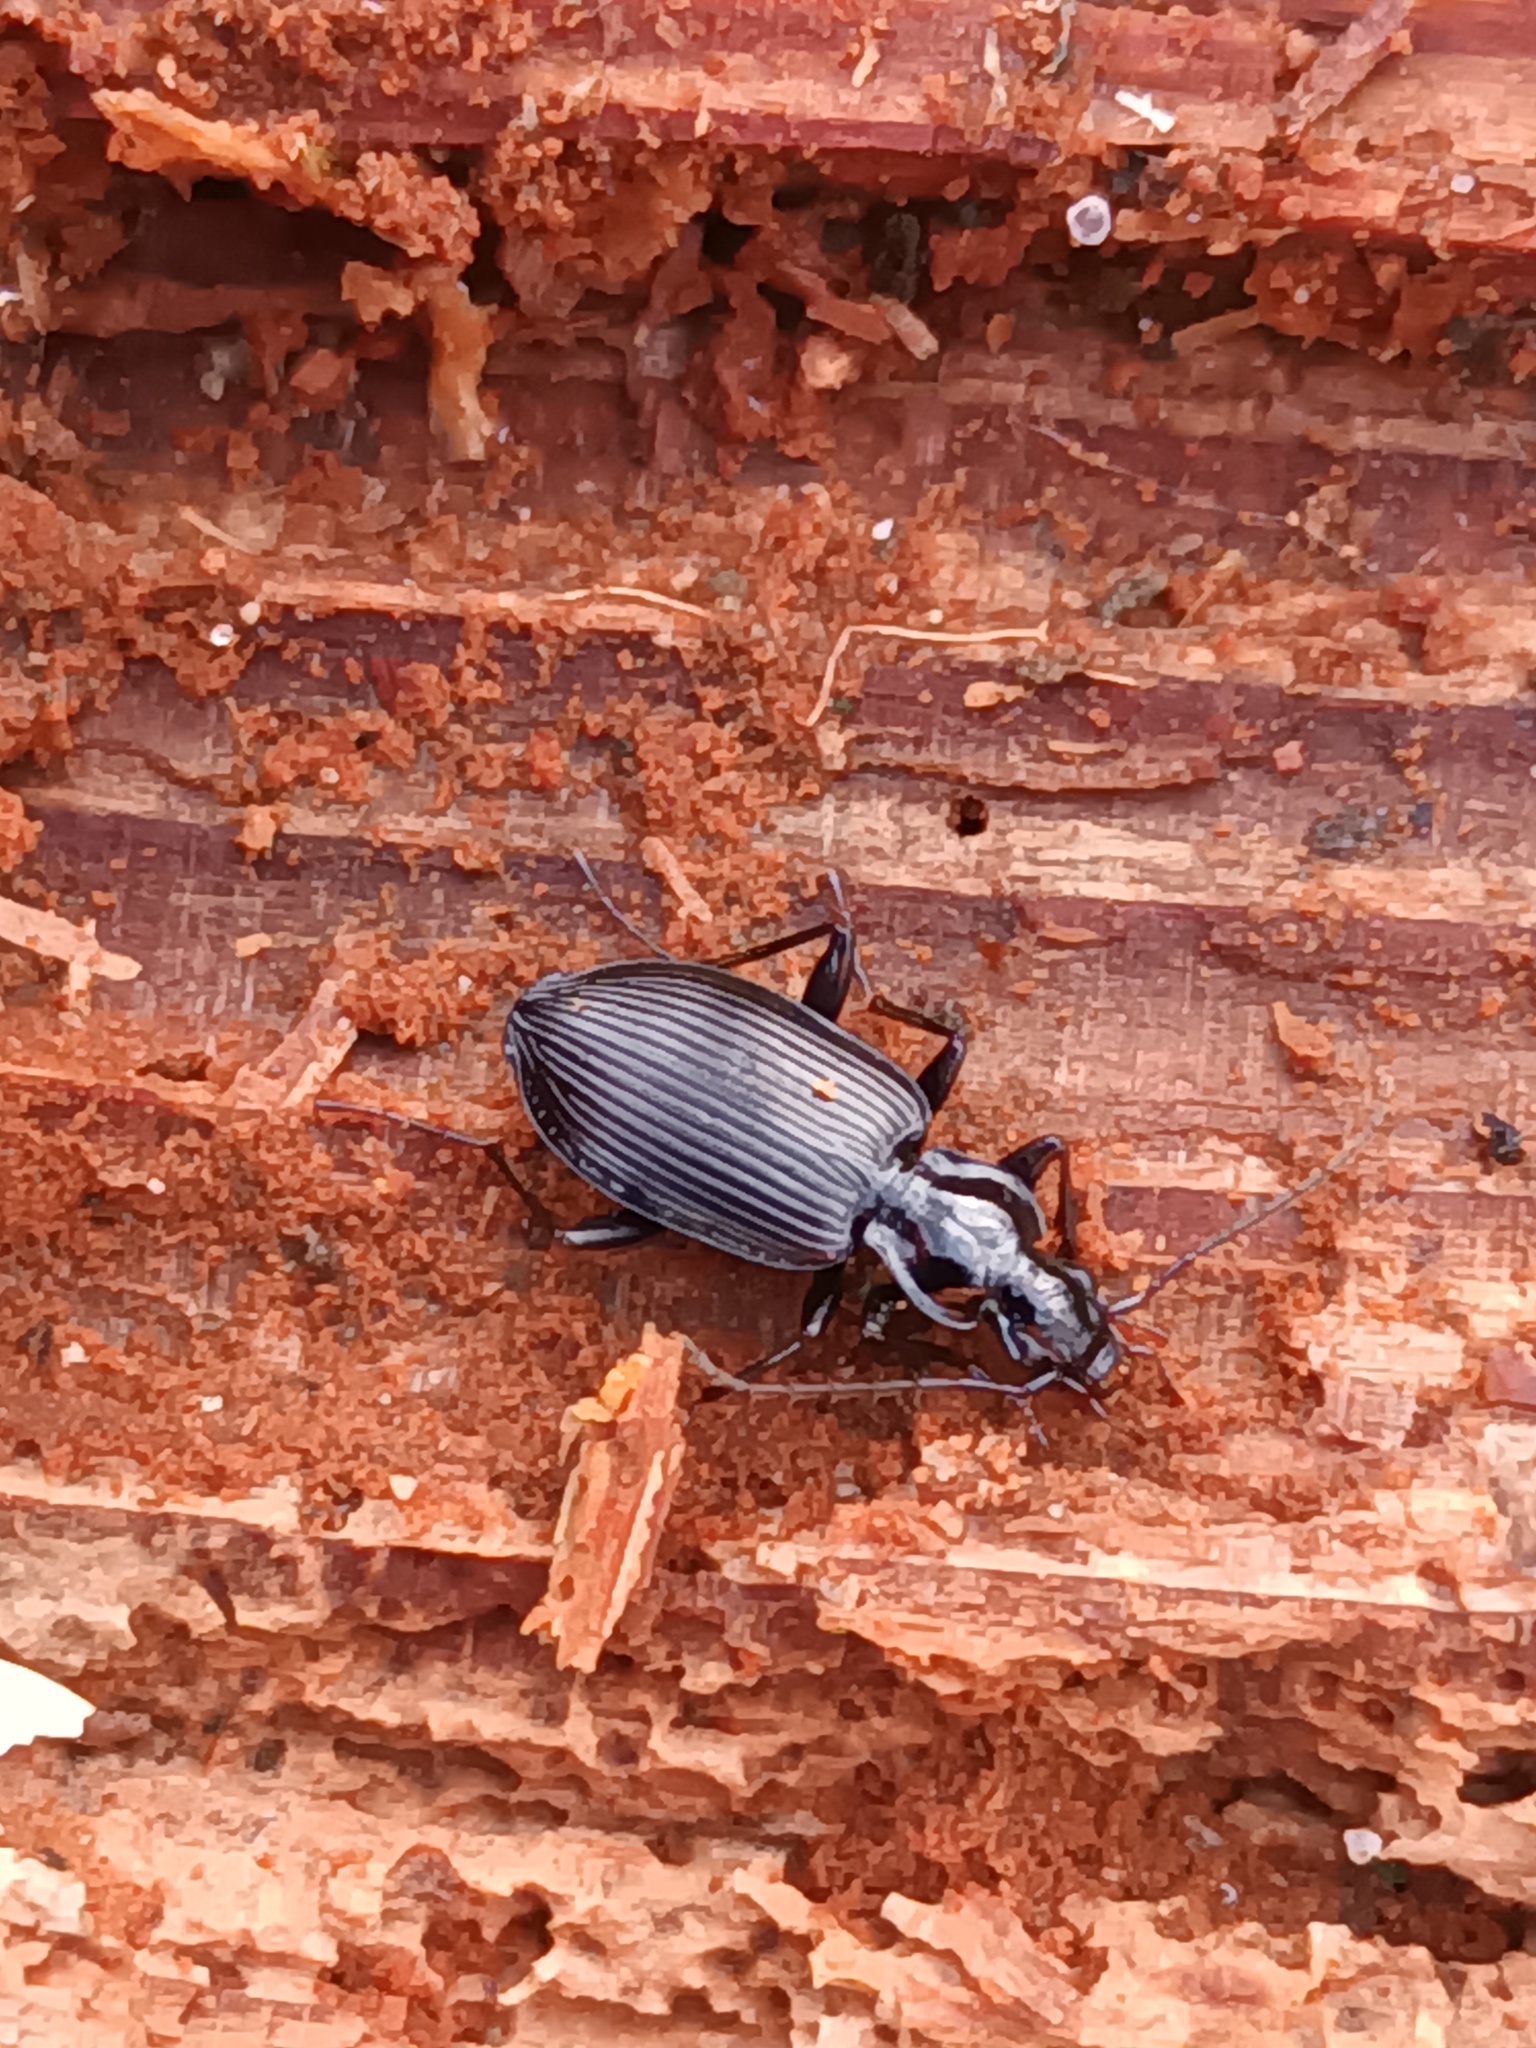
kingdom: Animalia
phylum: Arthropoda
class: Insecta
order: Coleoptera
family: Carabidae
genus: Platynus
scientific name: Platynus assimilis
